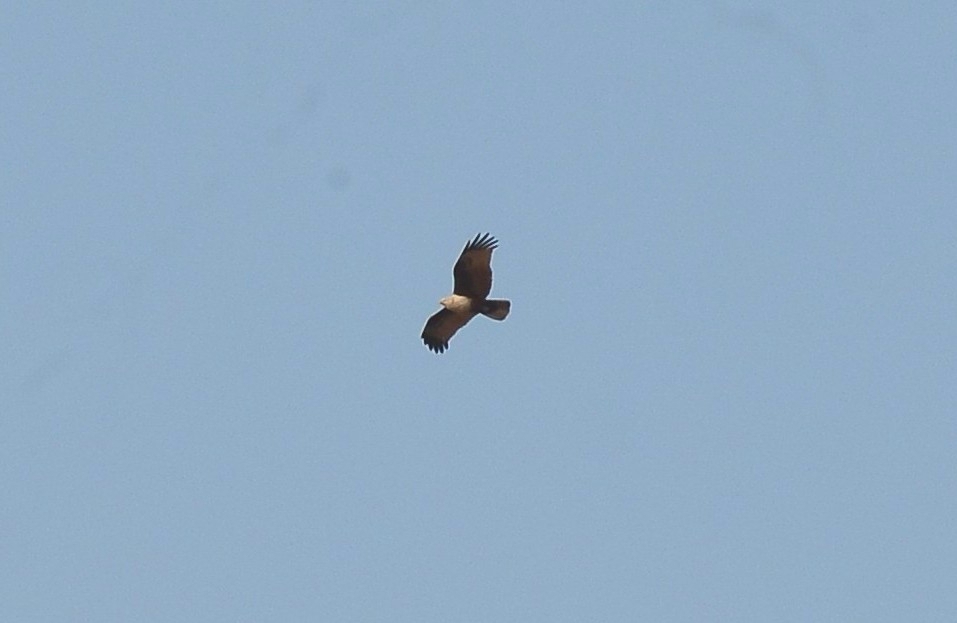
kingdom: Animalia
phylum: Chordata
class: Aves
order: Accipitriformes
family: Accipitridae
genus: Haliastur
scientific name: Haliastur indus
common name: Brahminy kite
